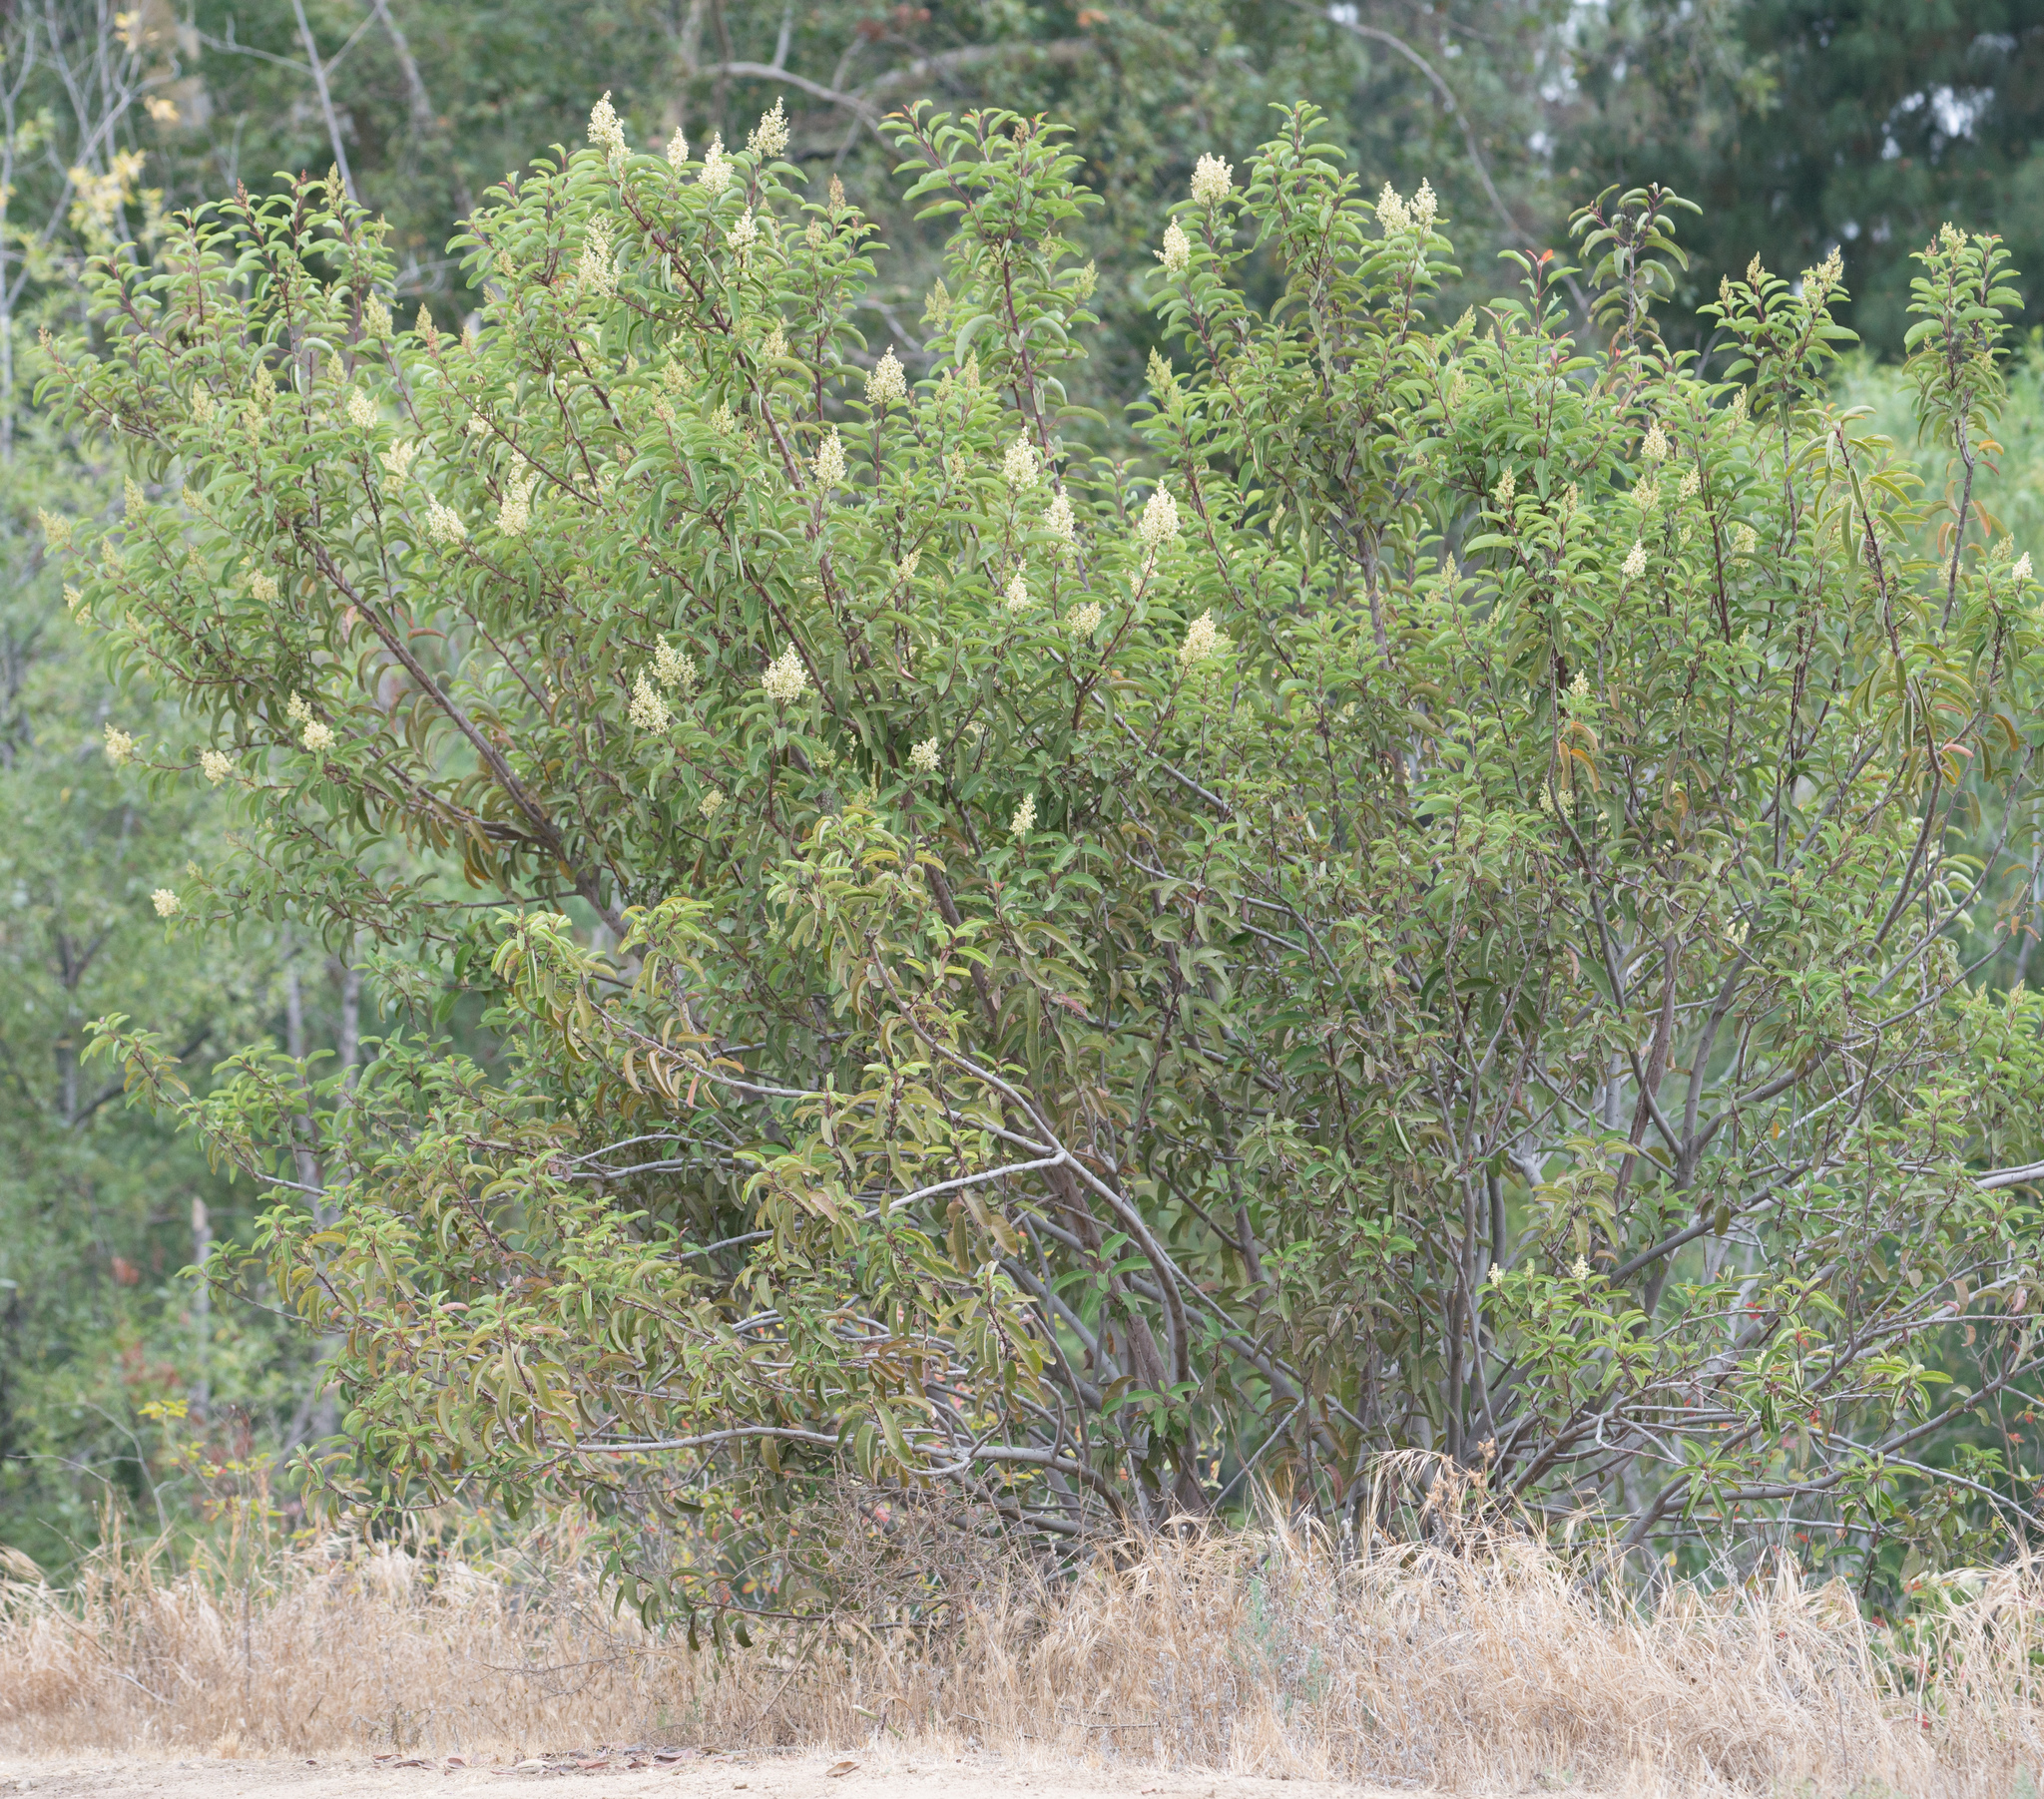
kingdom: Plantae
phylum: Tracheophyta
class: Magnoliopsida
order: Sapindales
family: Anacardiaceae
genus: Malosma
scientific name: Malosma laurina
